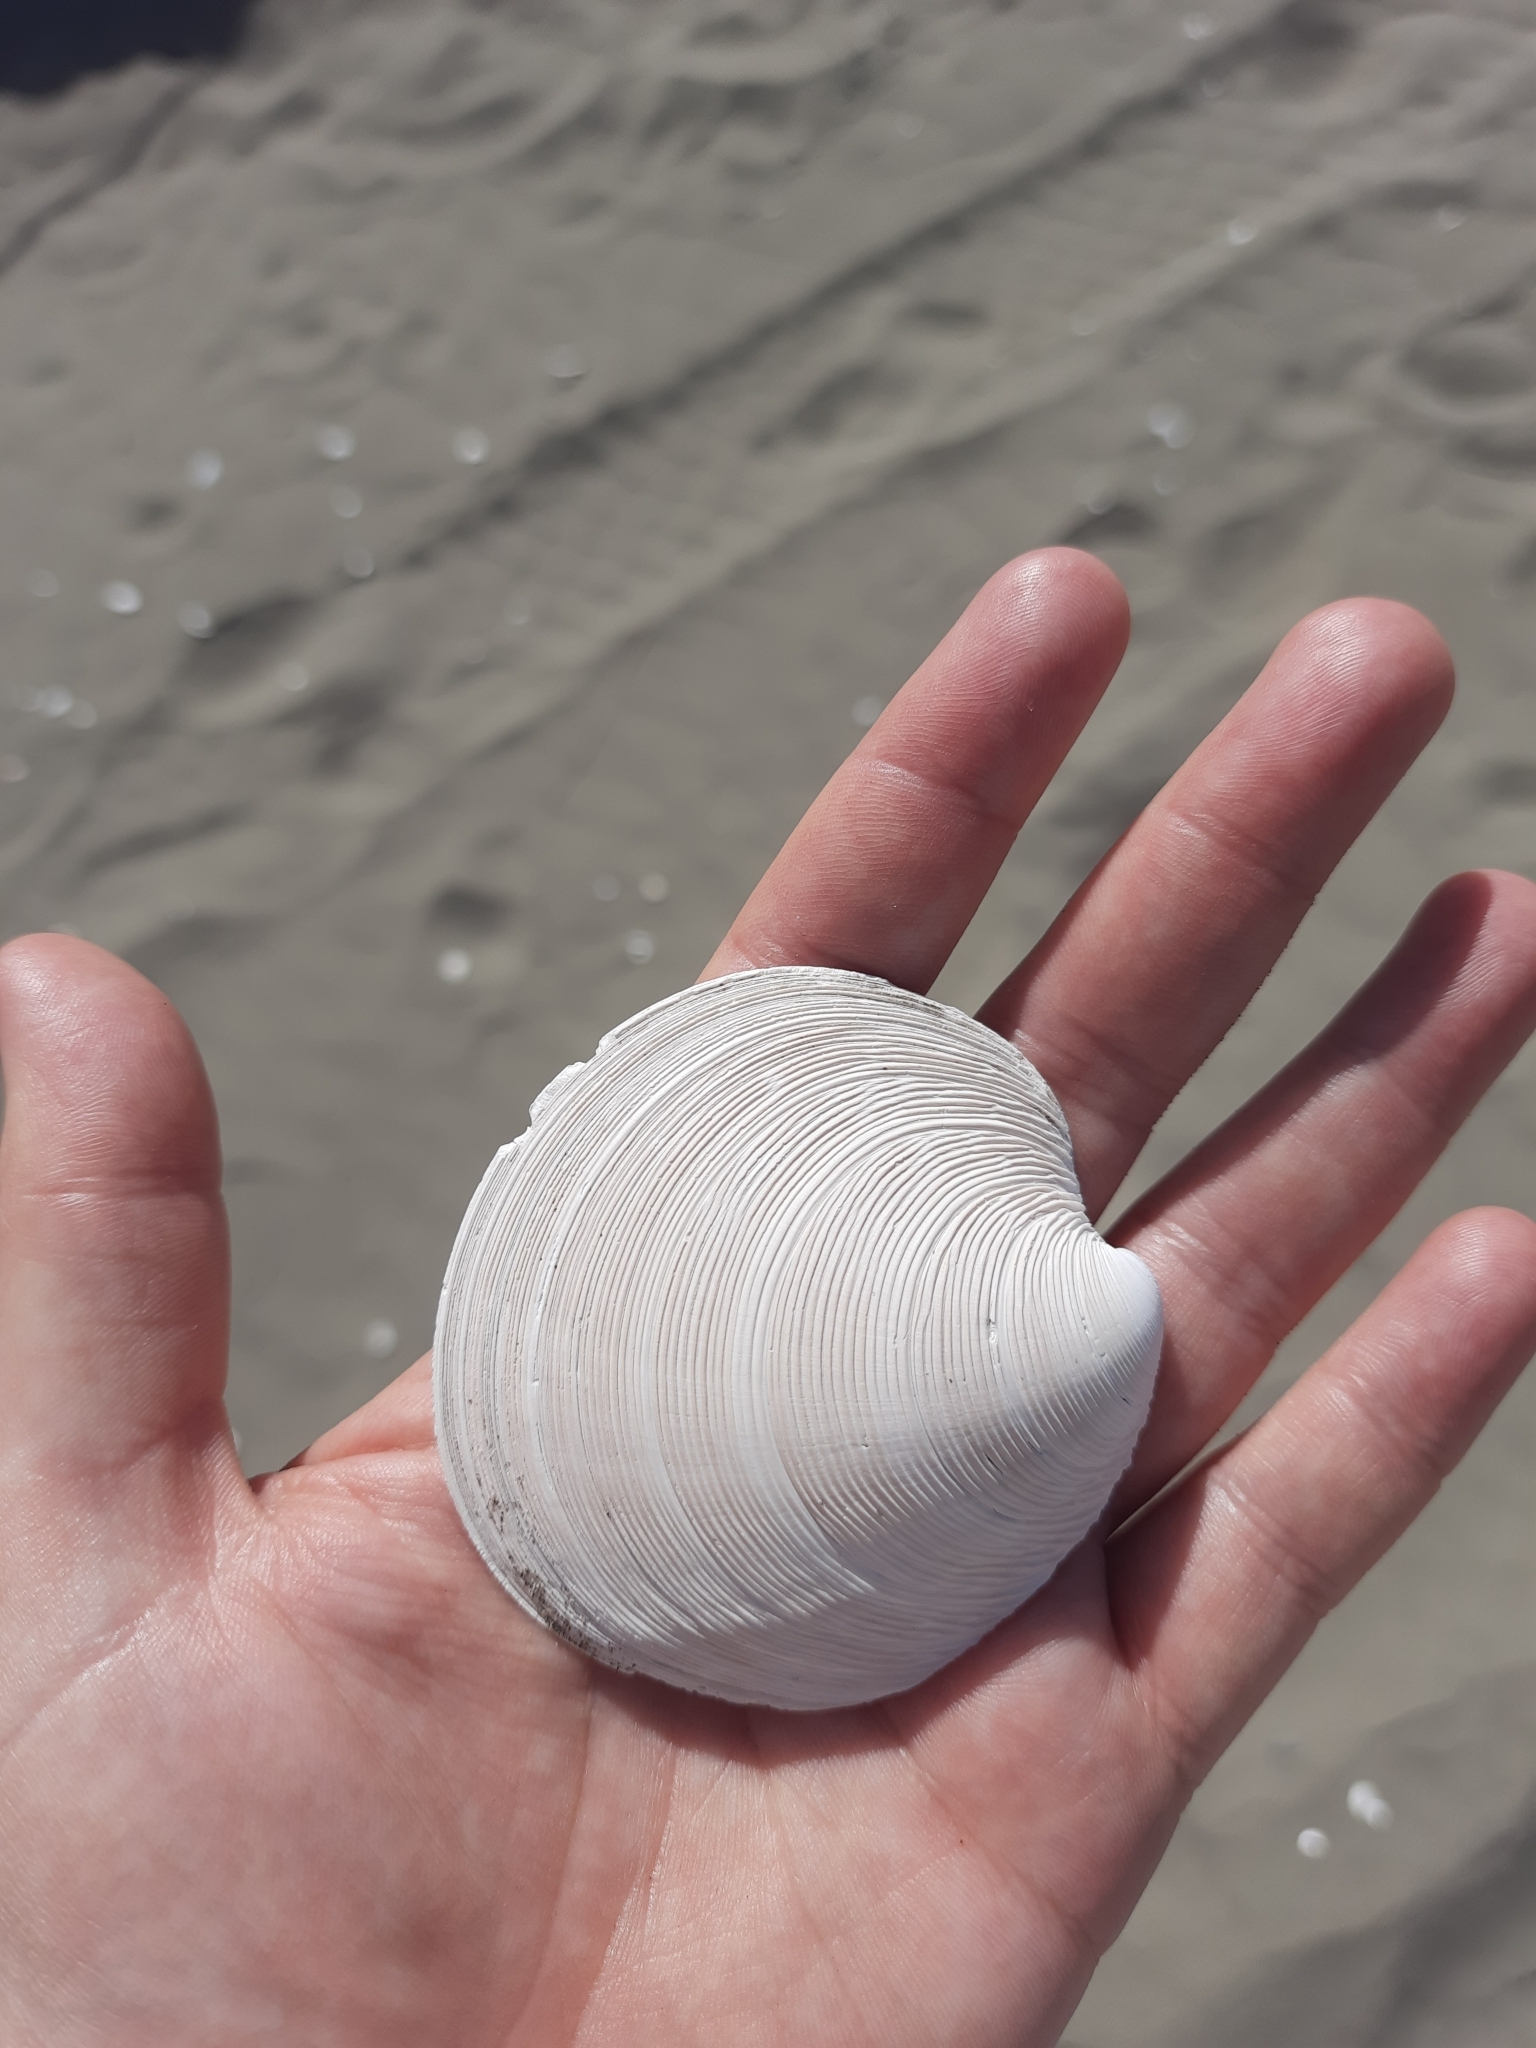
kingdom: Animalia
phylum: Mollusca
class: Bivalvia
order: Venerida
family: Veneridae
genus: Dosinia
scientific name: Dosinia anus
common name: Old-woman dosinia
